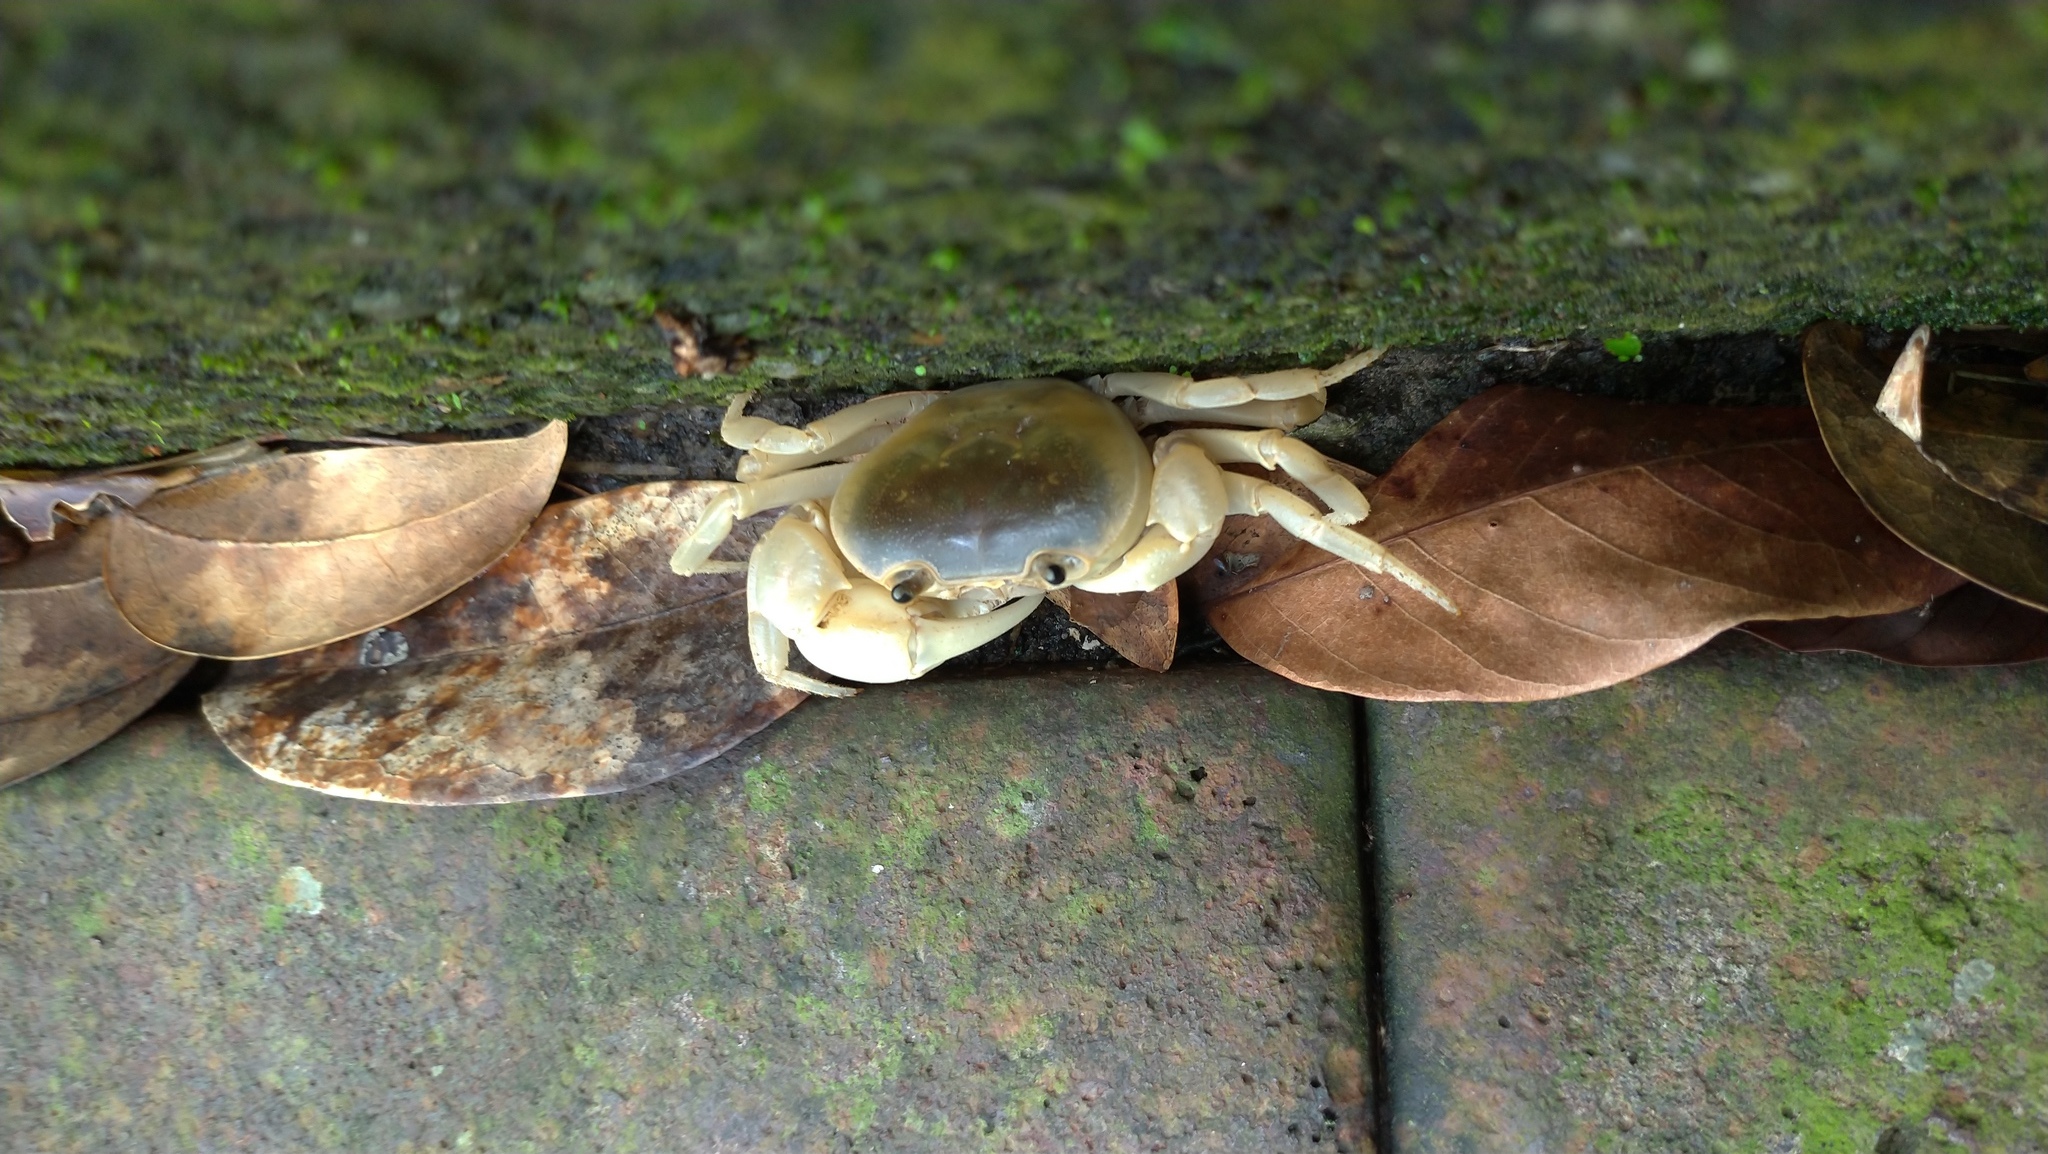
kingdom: Animalia
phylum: Arthropoda
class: Malacostraca
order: Decapoda
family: Potamidae
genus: Geothelphusa
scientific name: Geothelphusa albogilva
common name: Huang ze gray crab
